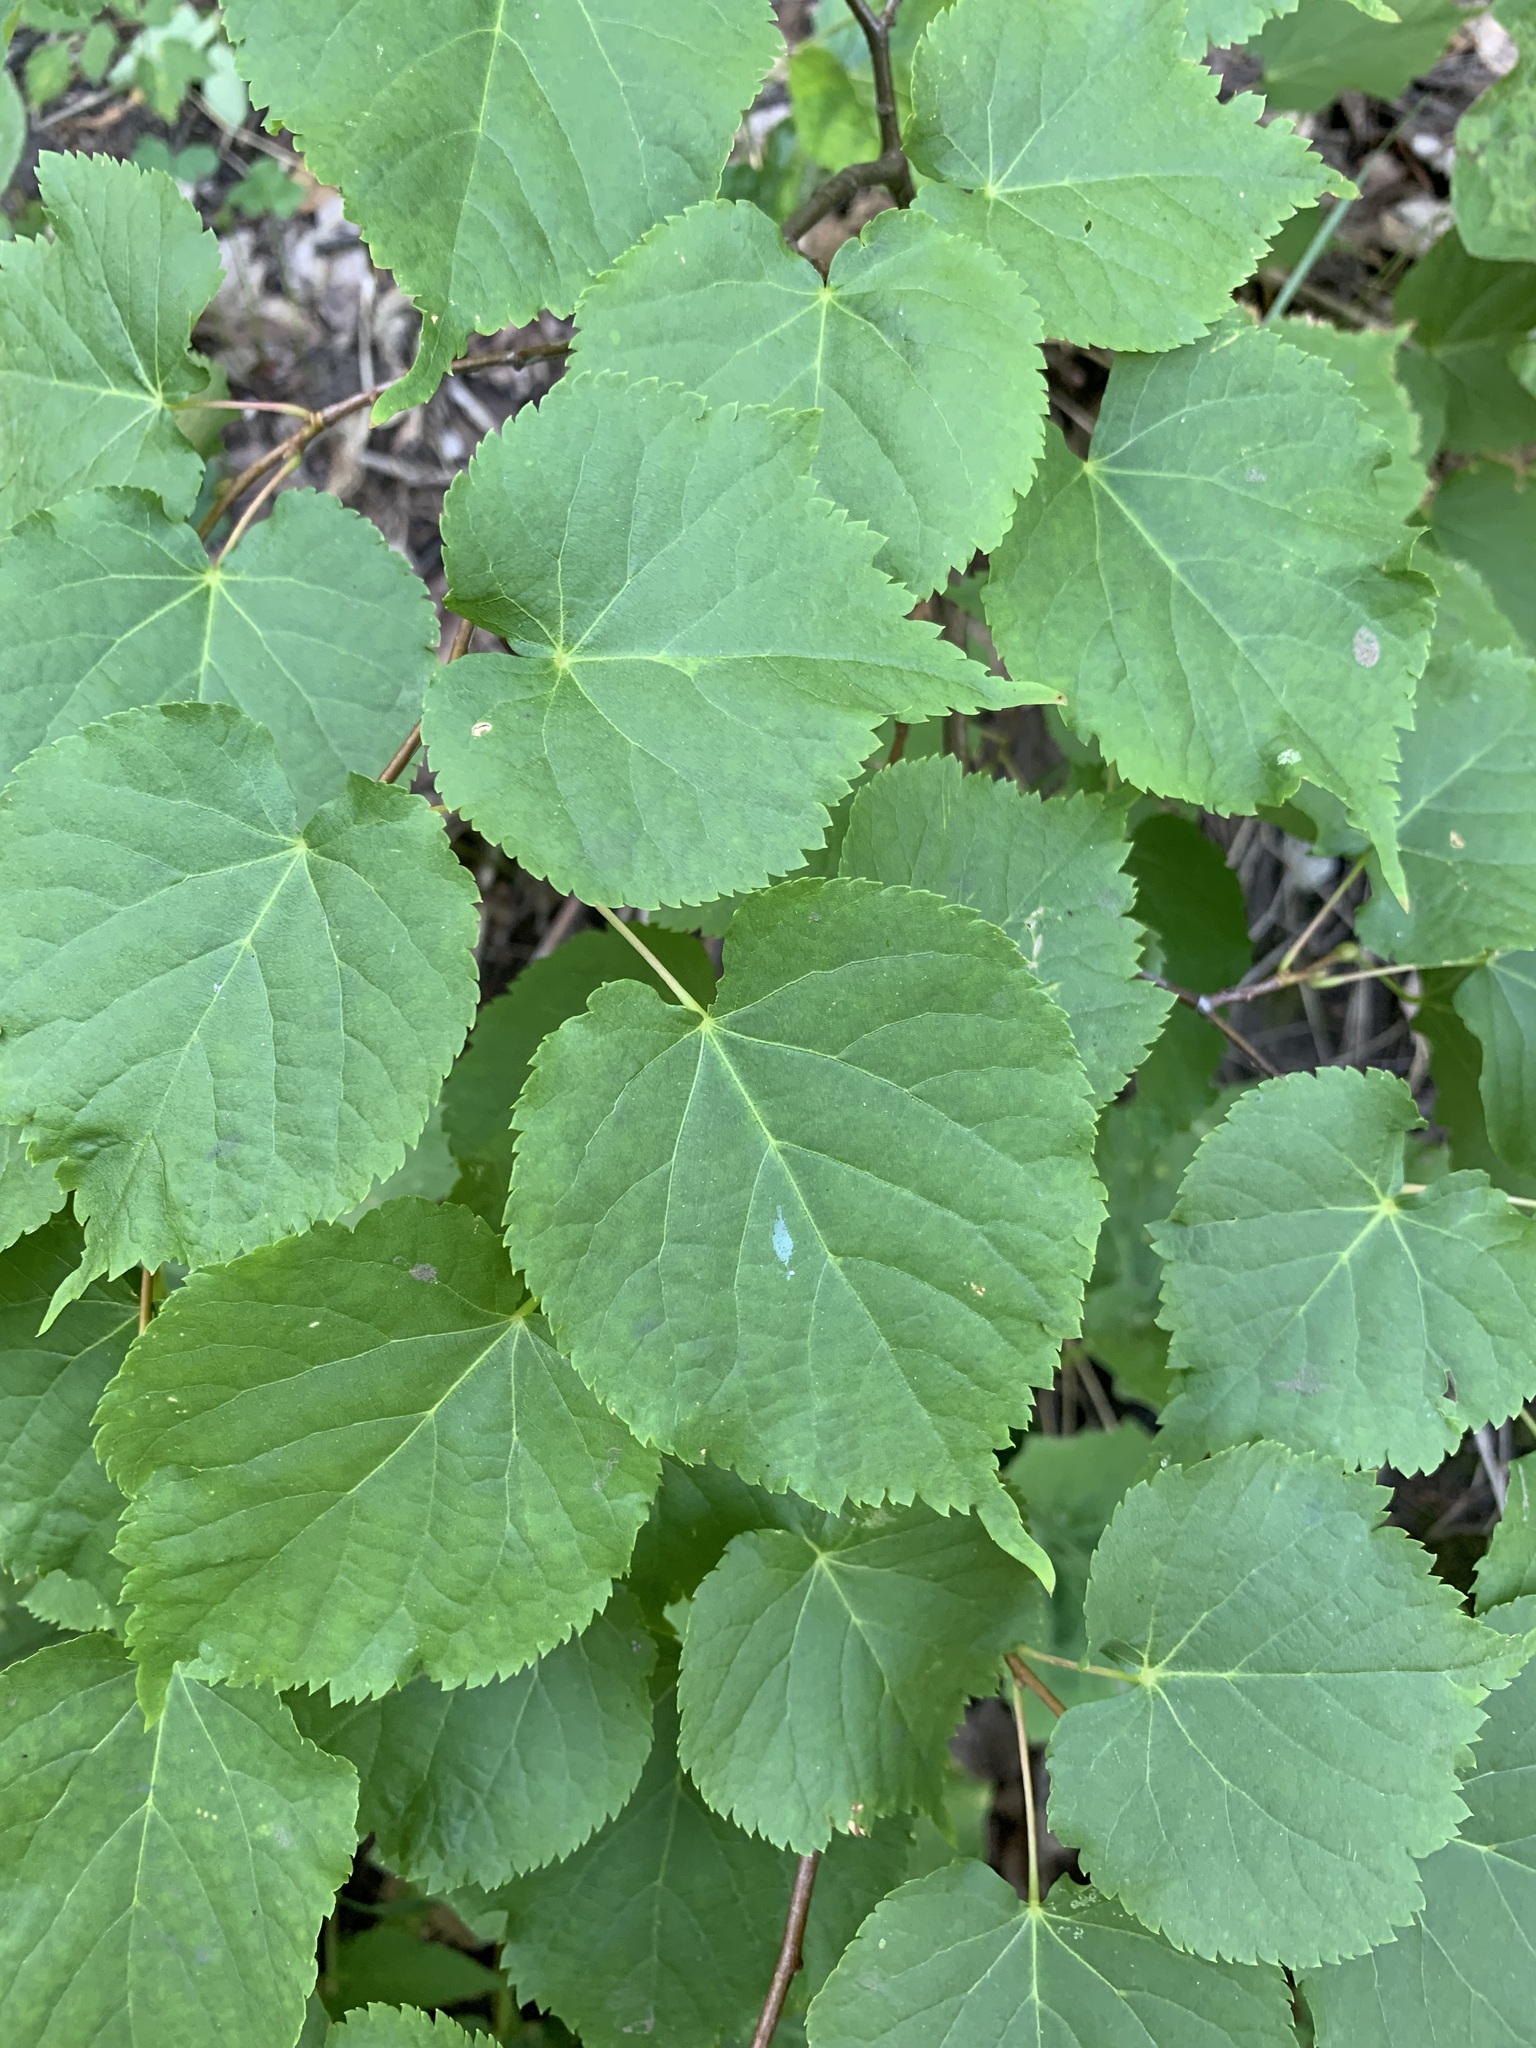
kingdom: Plantae
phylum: Tracheophyta
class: Magnoliopsida
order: Malvales
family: Malvaceae
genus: Tilia
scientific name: Tilia cordata
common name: Small-leaved lime
